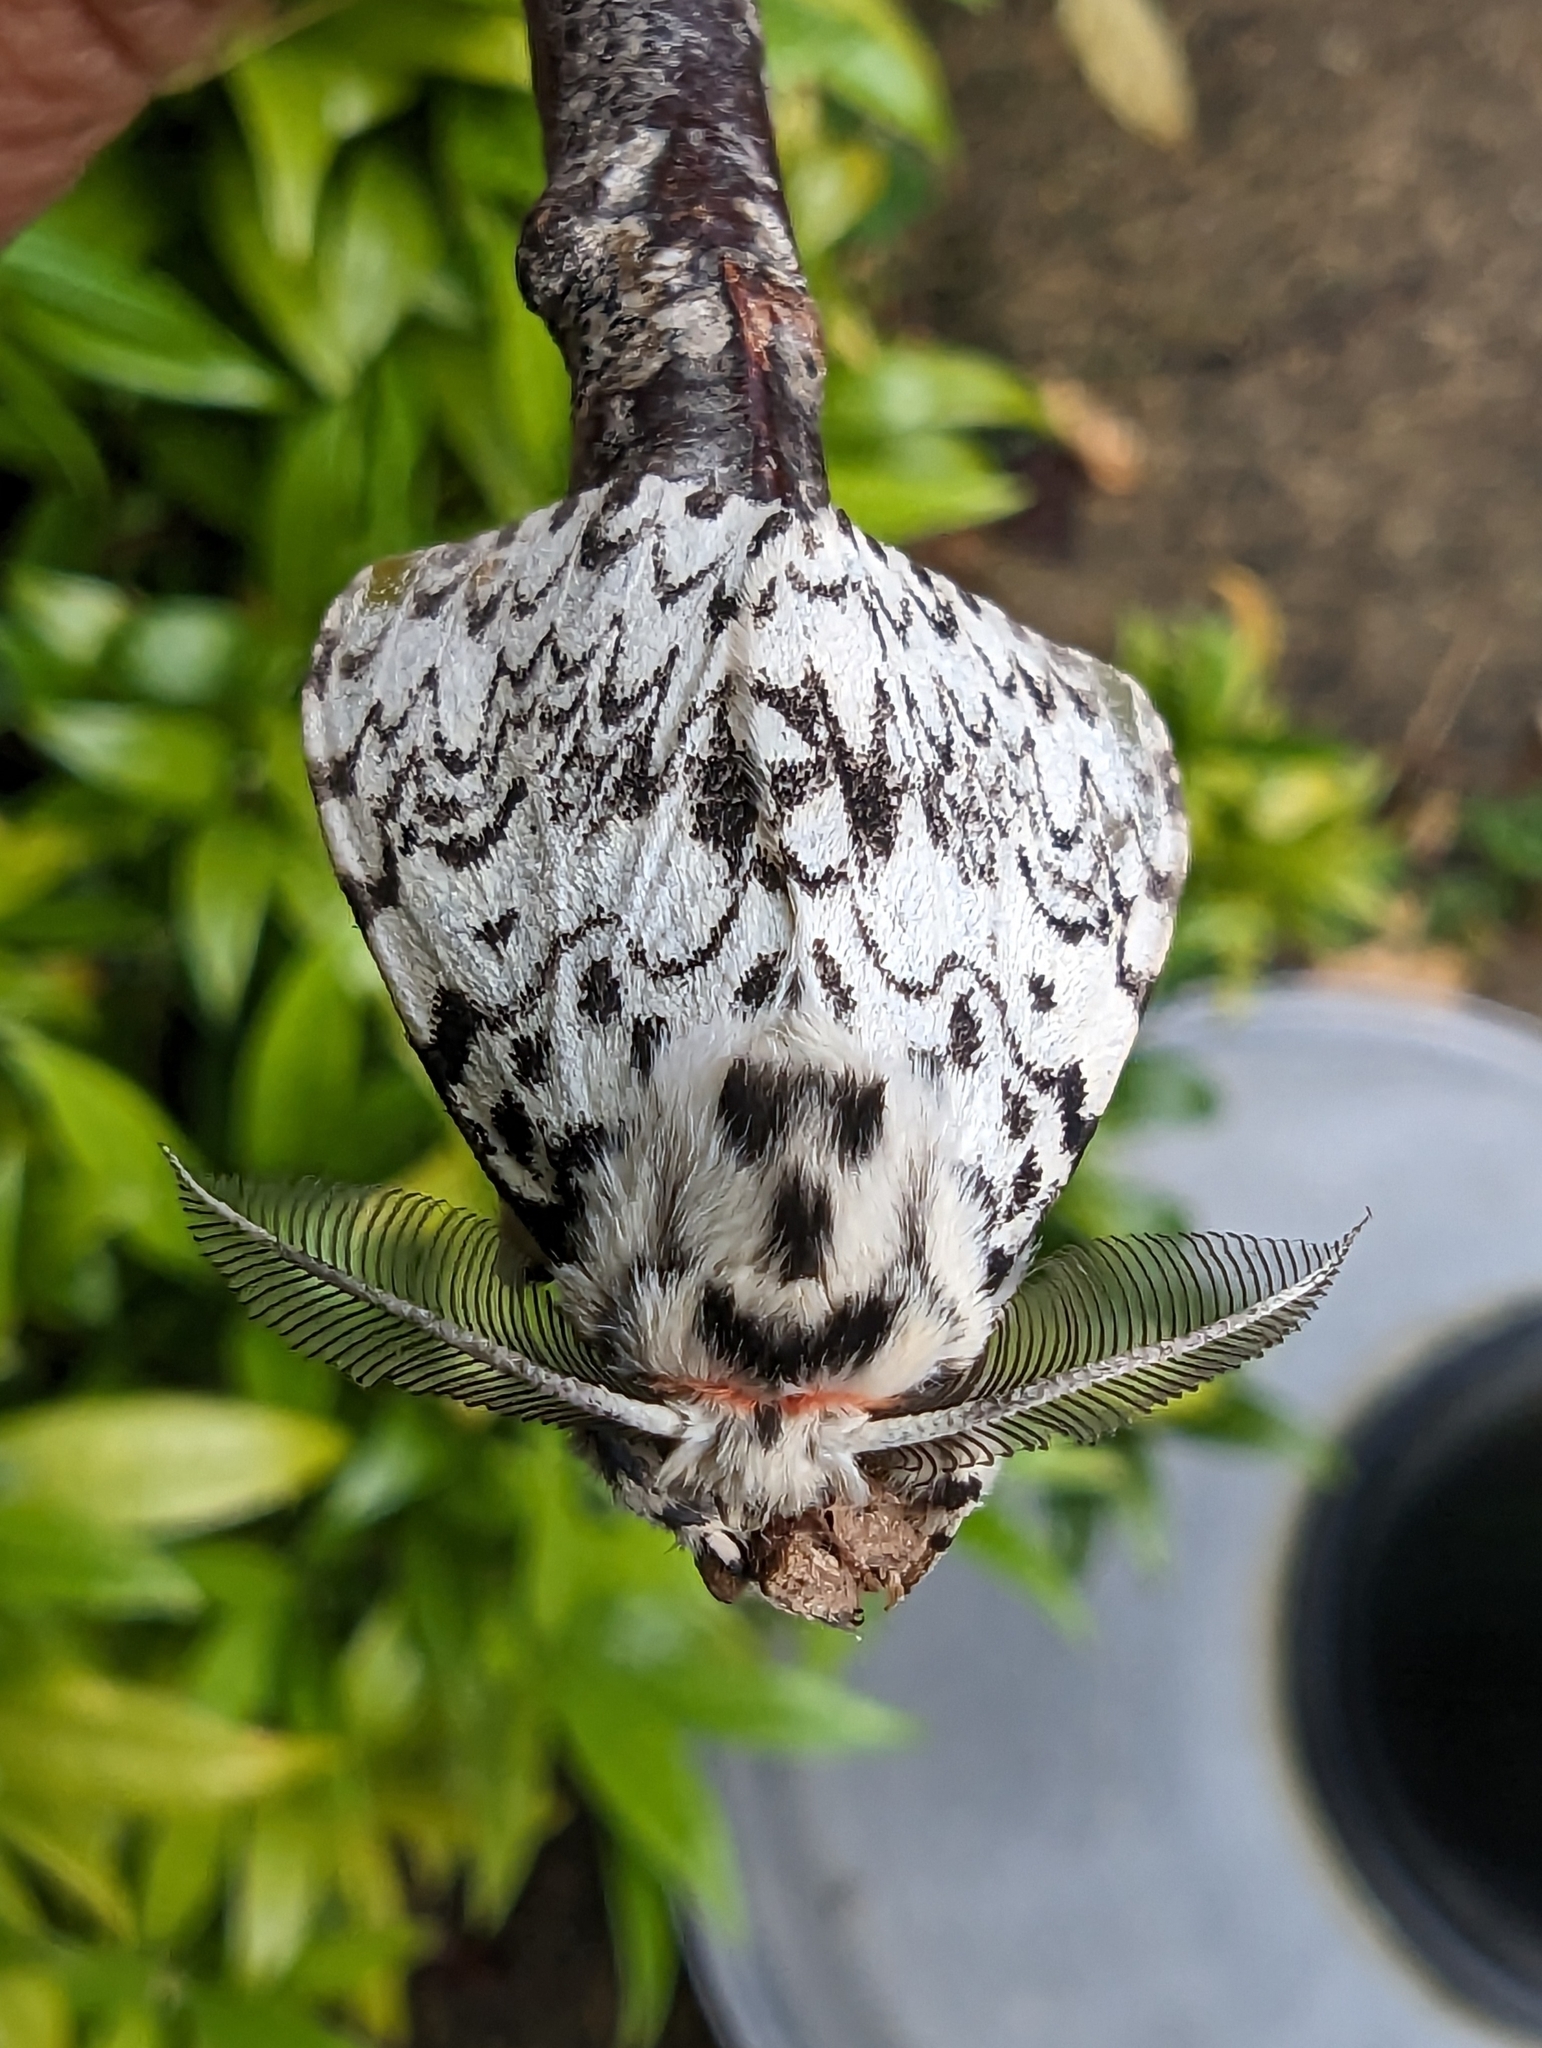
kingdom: Animalia
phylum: Arthropoda
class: Insecta
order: Lepidoptera
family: Erebidae
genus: Lymantria
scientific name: Lymantria monacha
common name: Black arches
